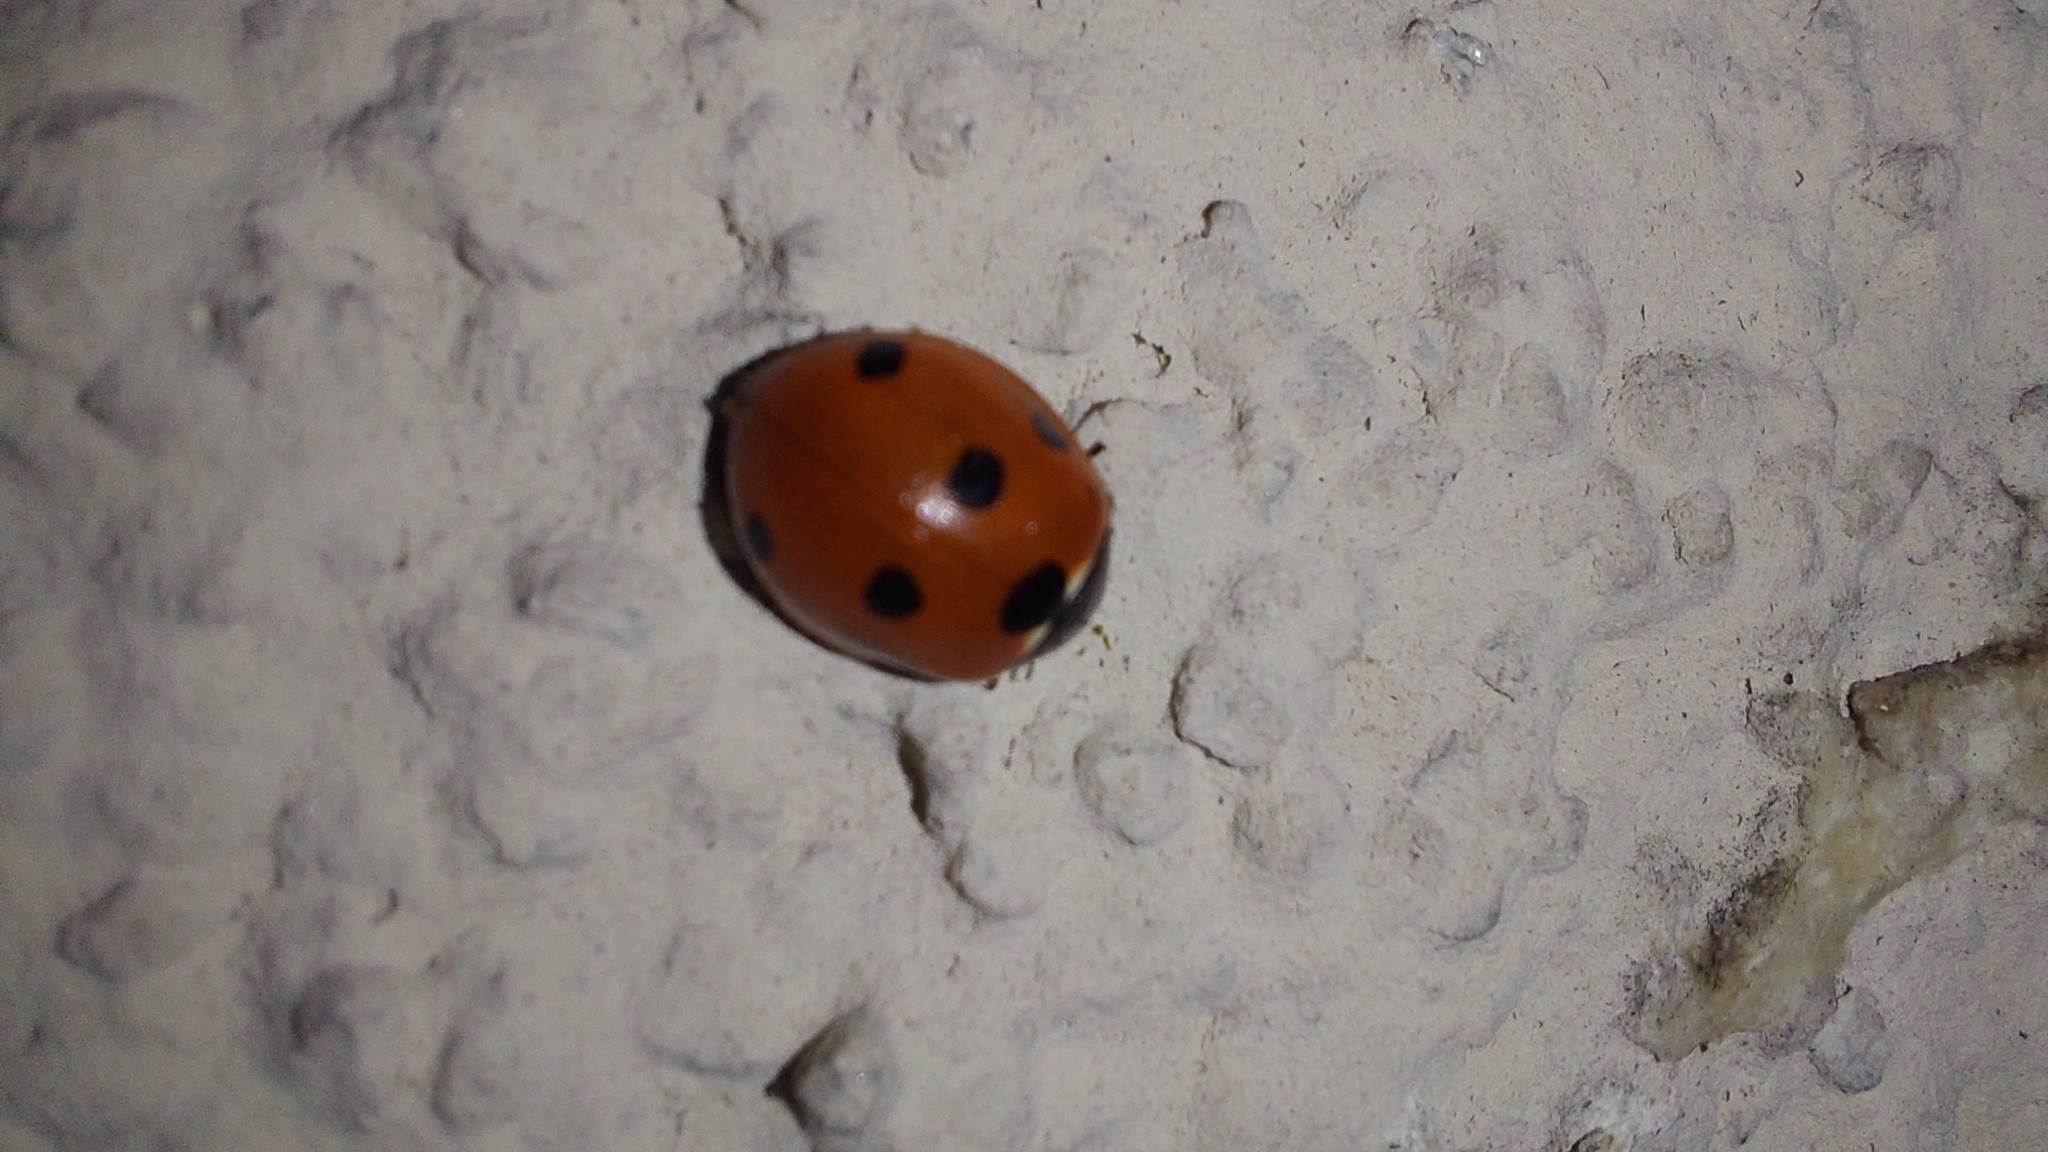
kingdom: Animalia
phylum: Arthropoda
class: Insecta
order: Coleoptera
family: Coccinellidae
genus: Coccinella
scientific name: Coccinella septempunctata
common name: Sevenspotted lady beetle
